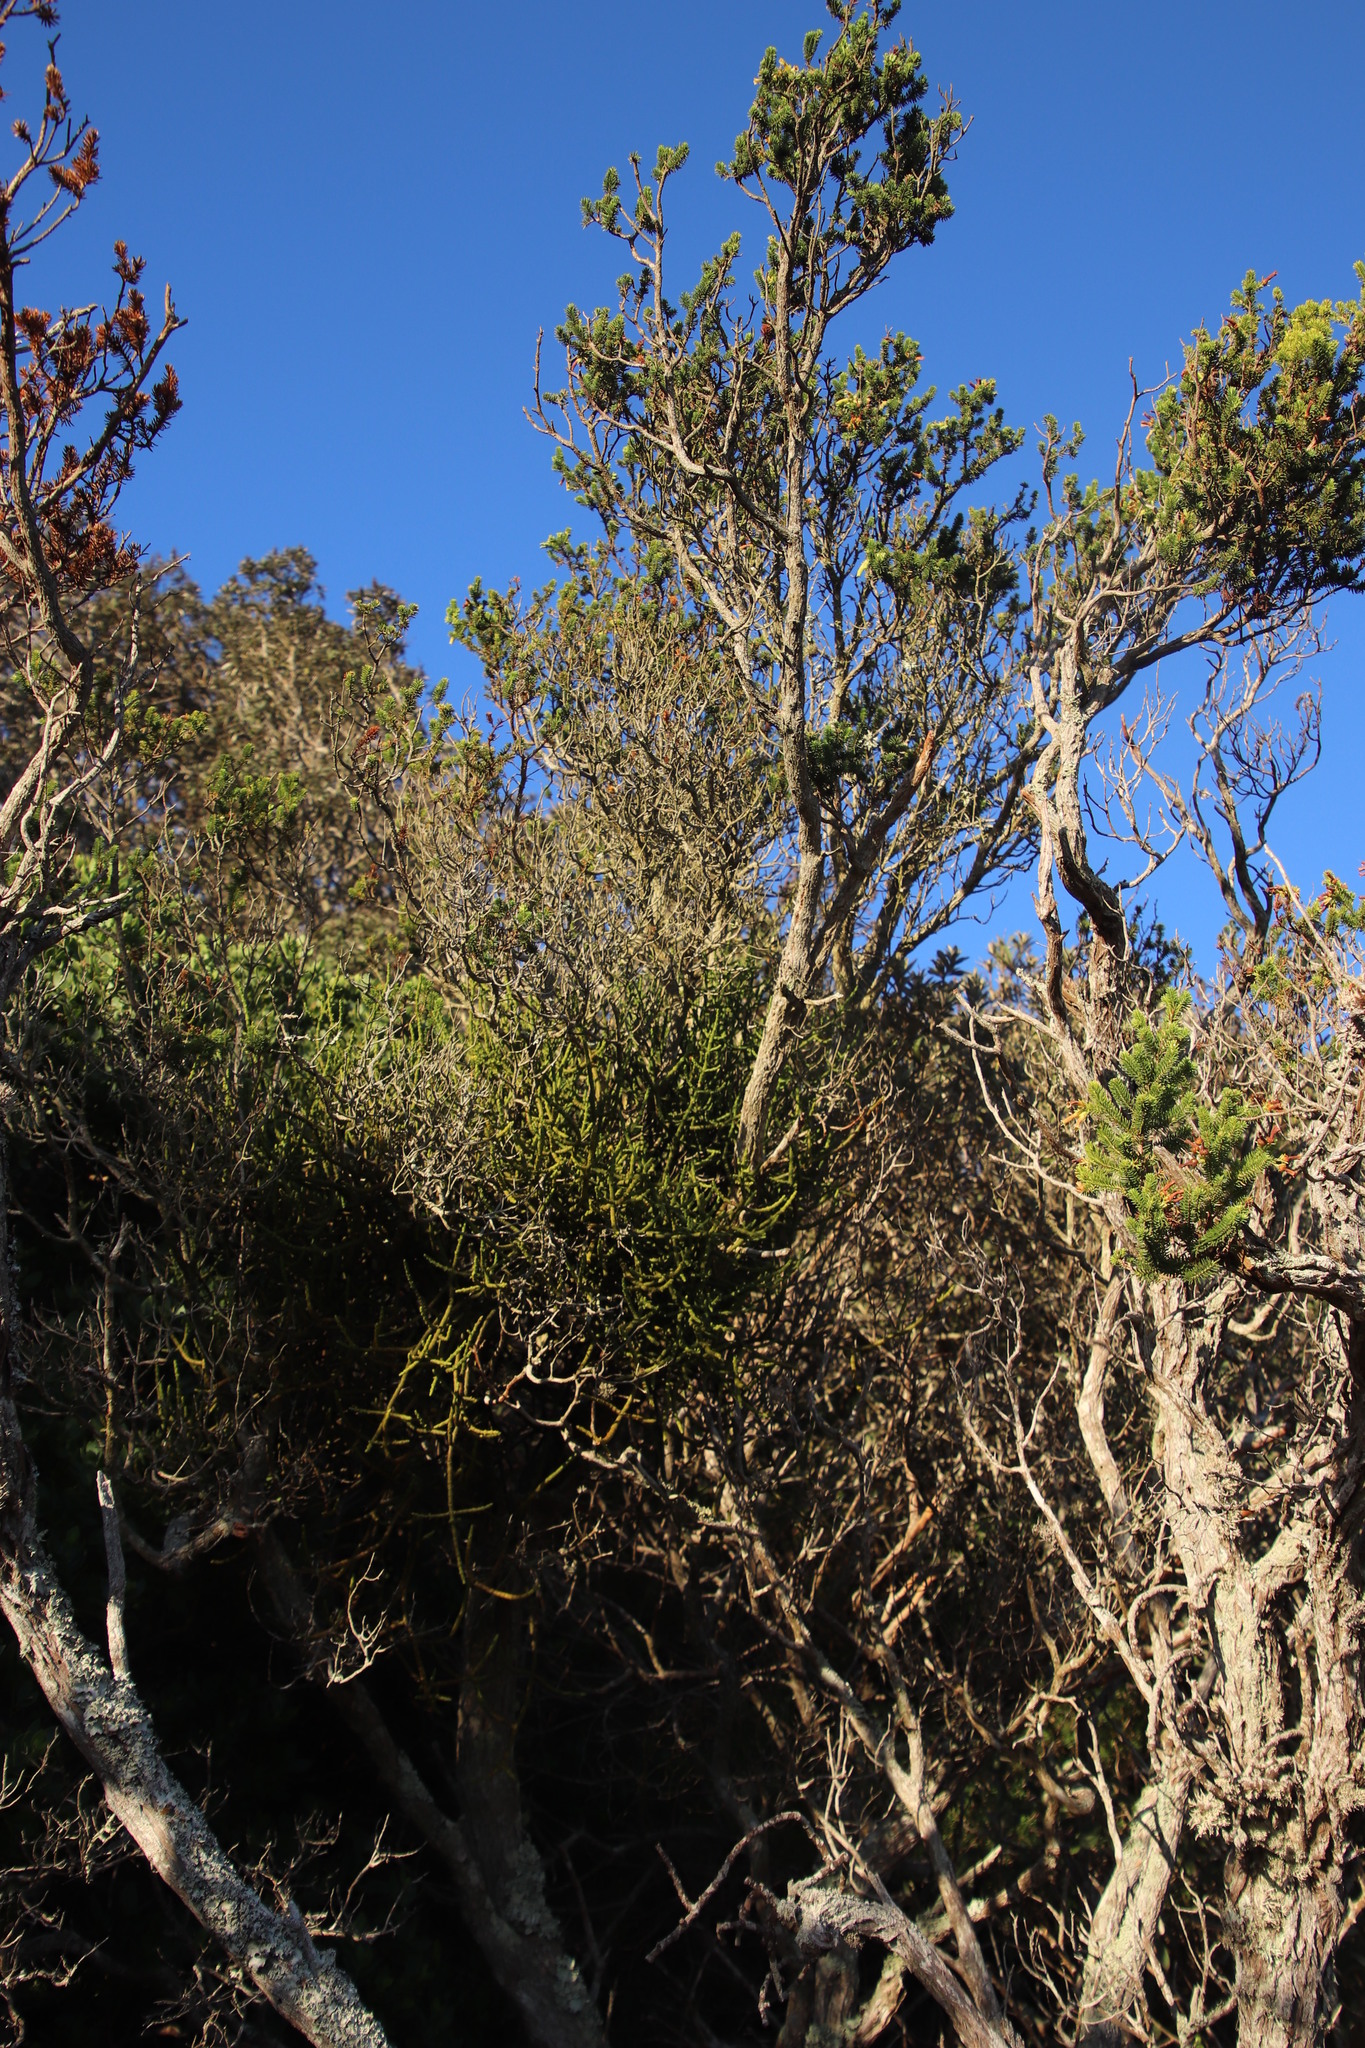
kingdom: Plantae
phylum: Tracheophyta
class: Magnoliopsida
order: Santalales
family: Viscaceae
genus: Viscum
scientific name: Viscum capense
